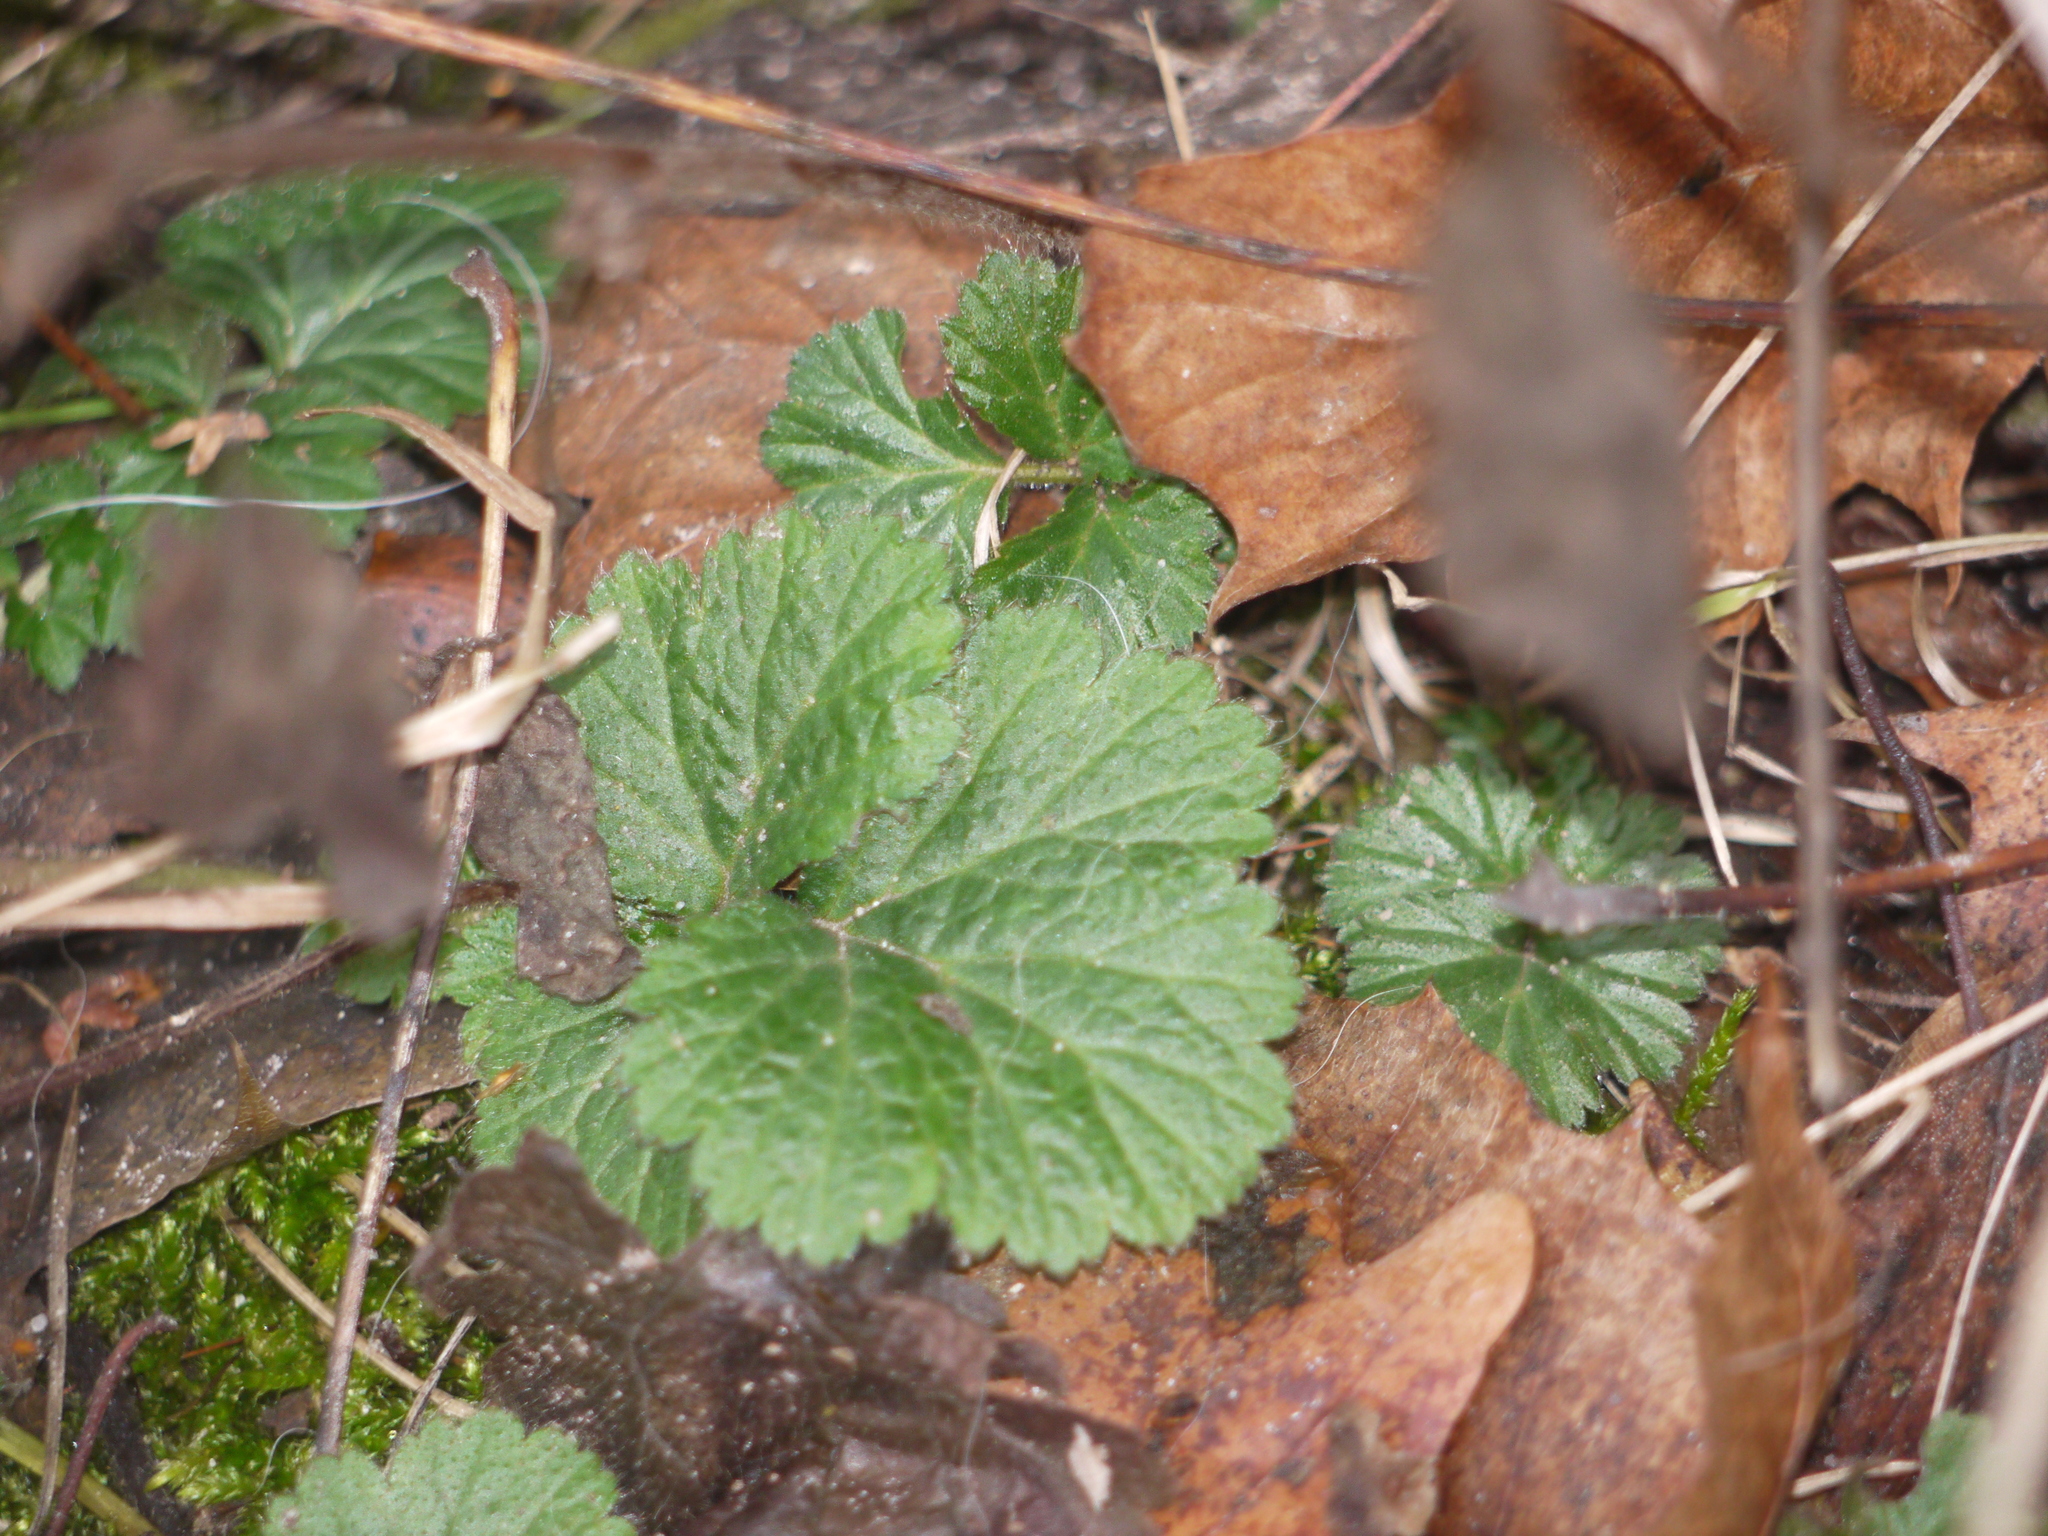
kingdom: Plantae
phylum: Tracheophyta
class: Magnoliopsida
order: Rosales
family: Rosaceae
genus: Geum
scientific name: Geum urbanum
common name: Wood avens
